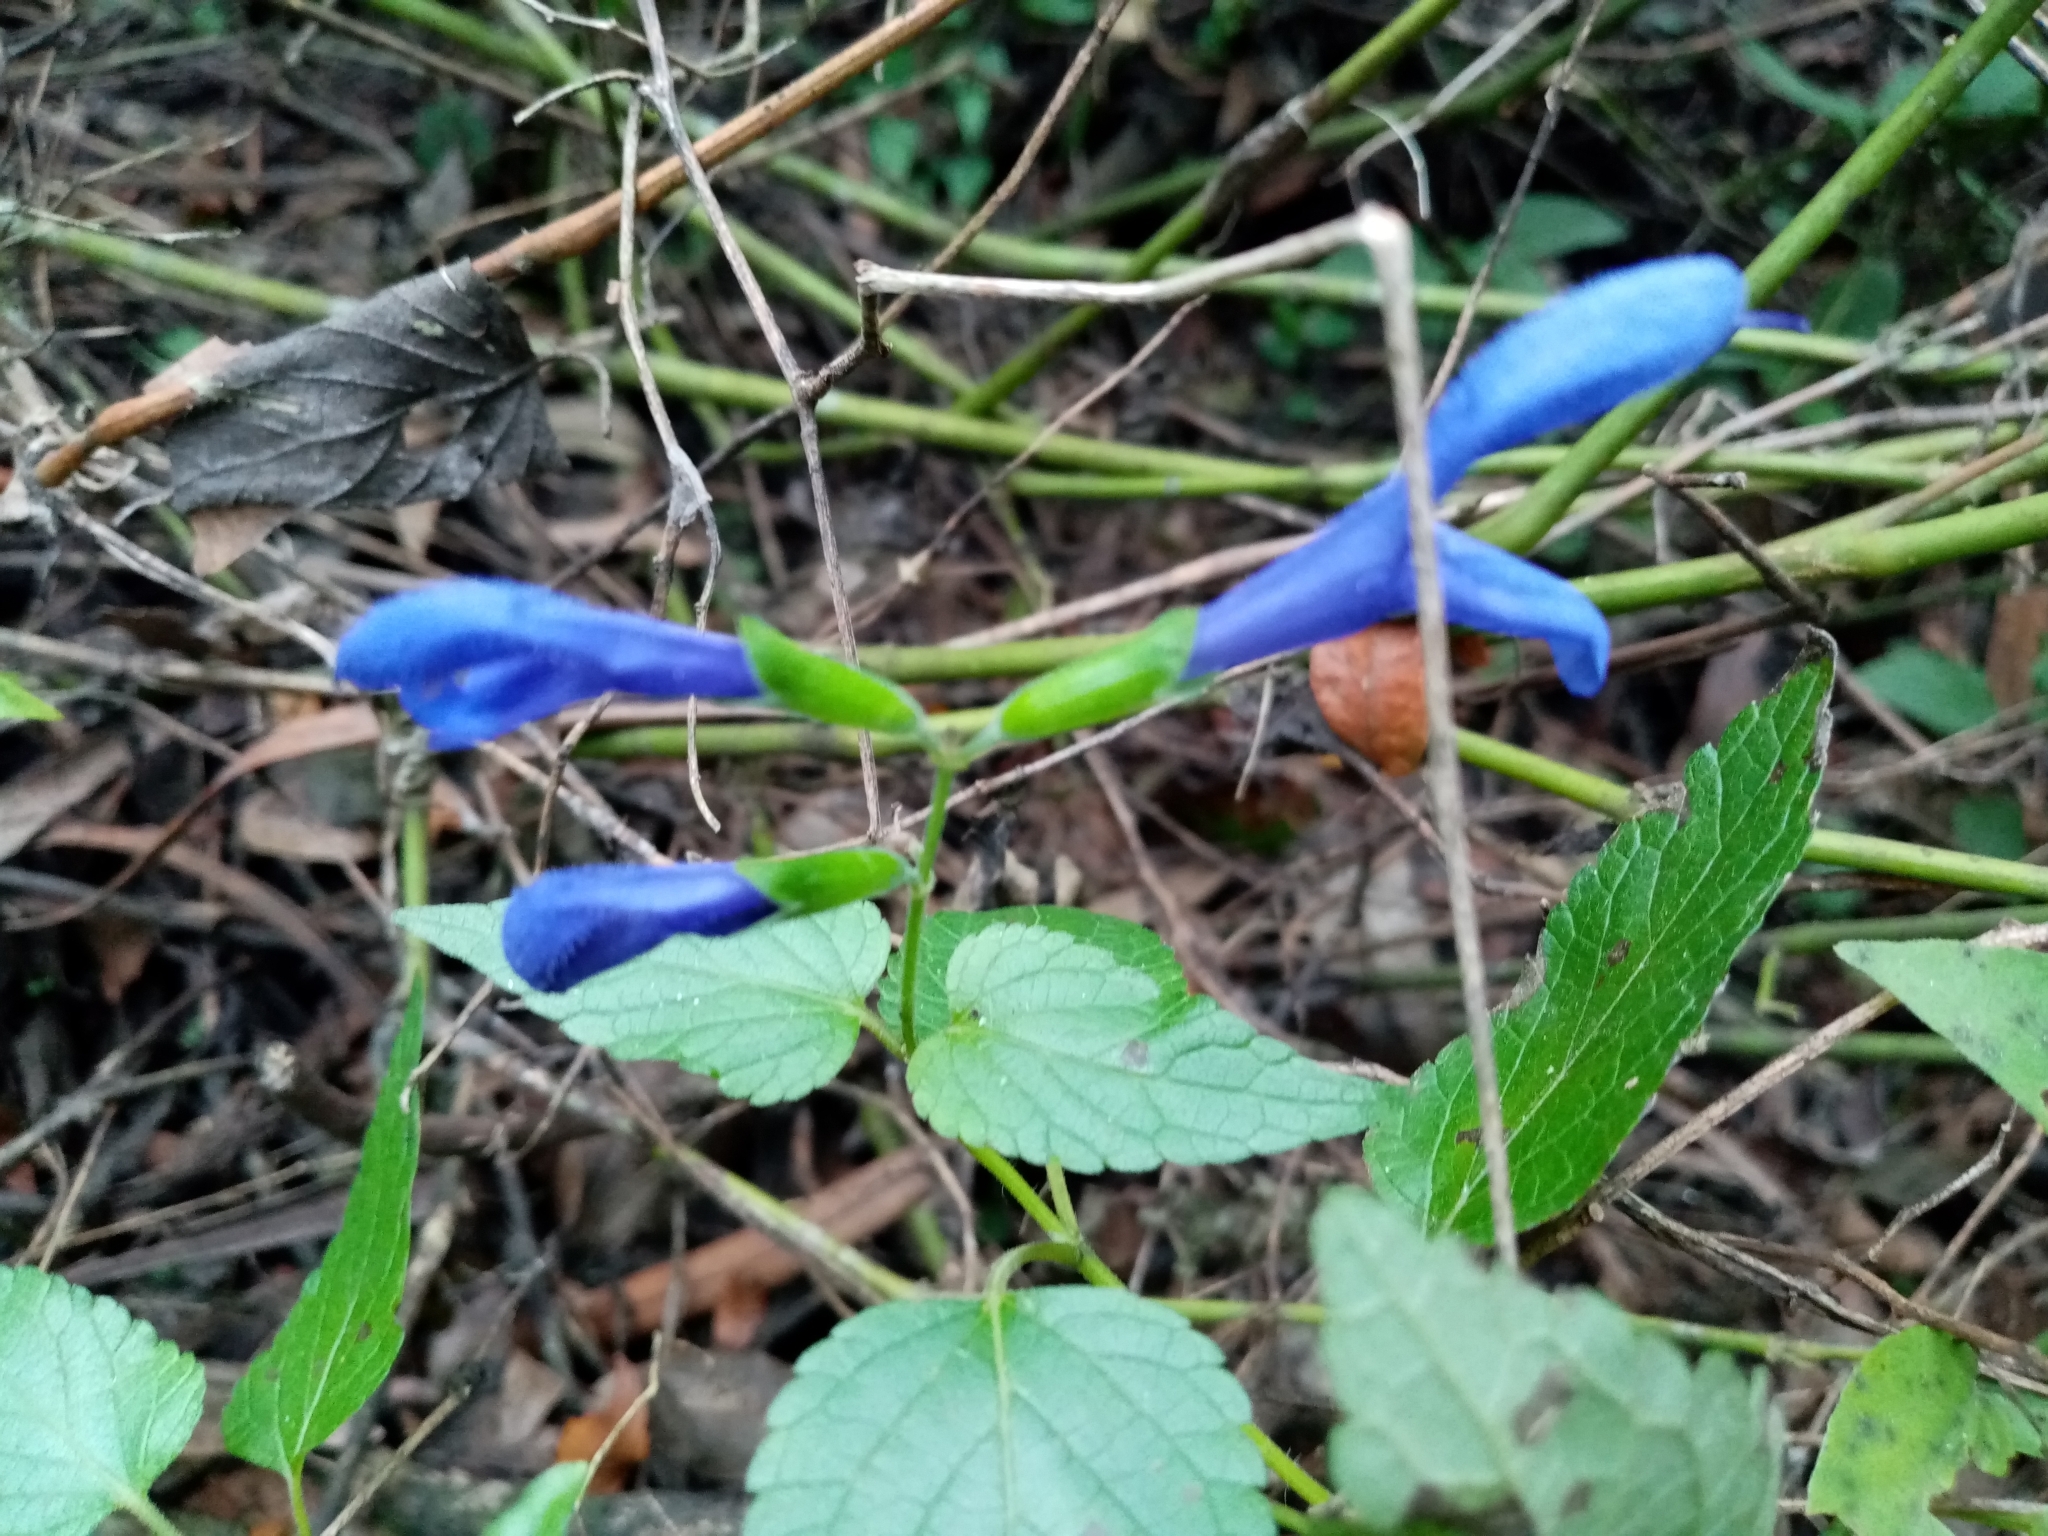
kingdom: Plantae
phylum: Tracheophyta
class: Magnoliopsida
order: Lamiales
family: Lamiaceae
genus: Salvia
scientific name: Salvia guaranitica
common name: Anise-scented sage
